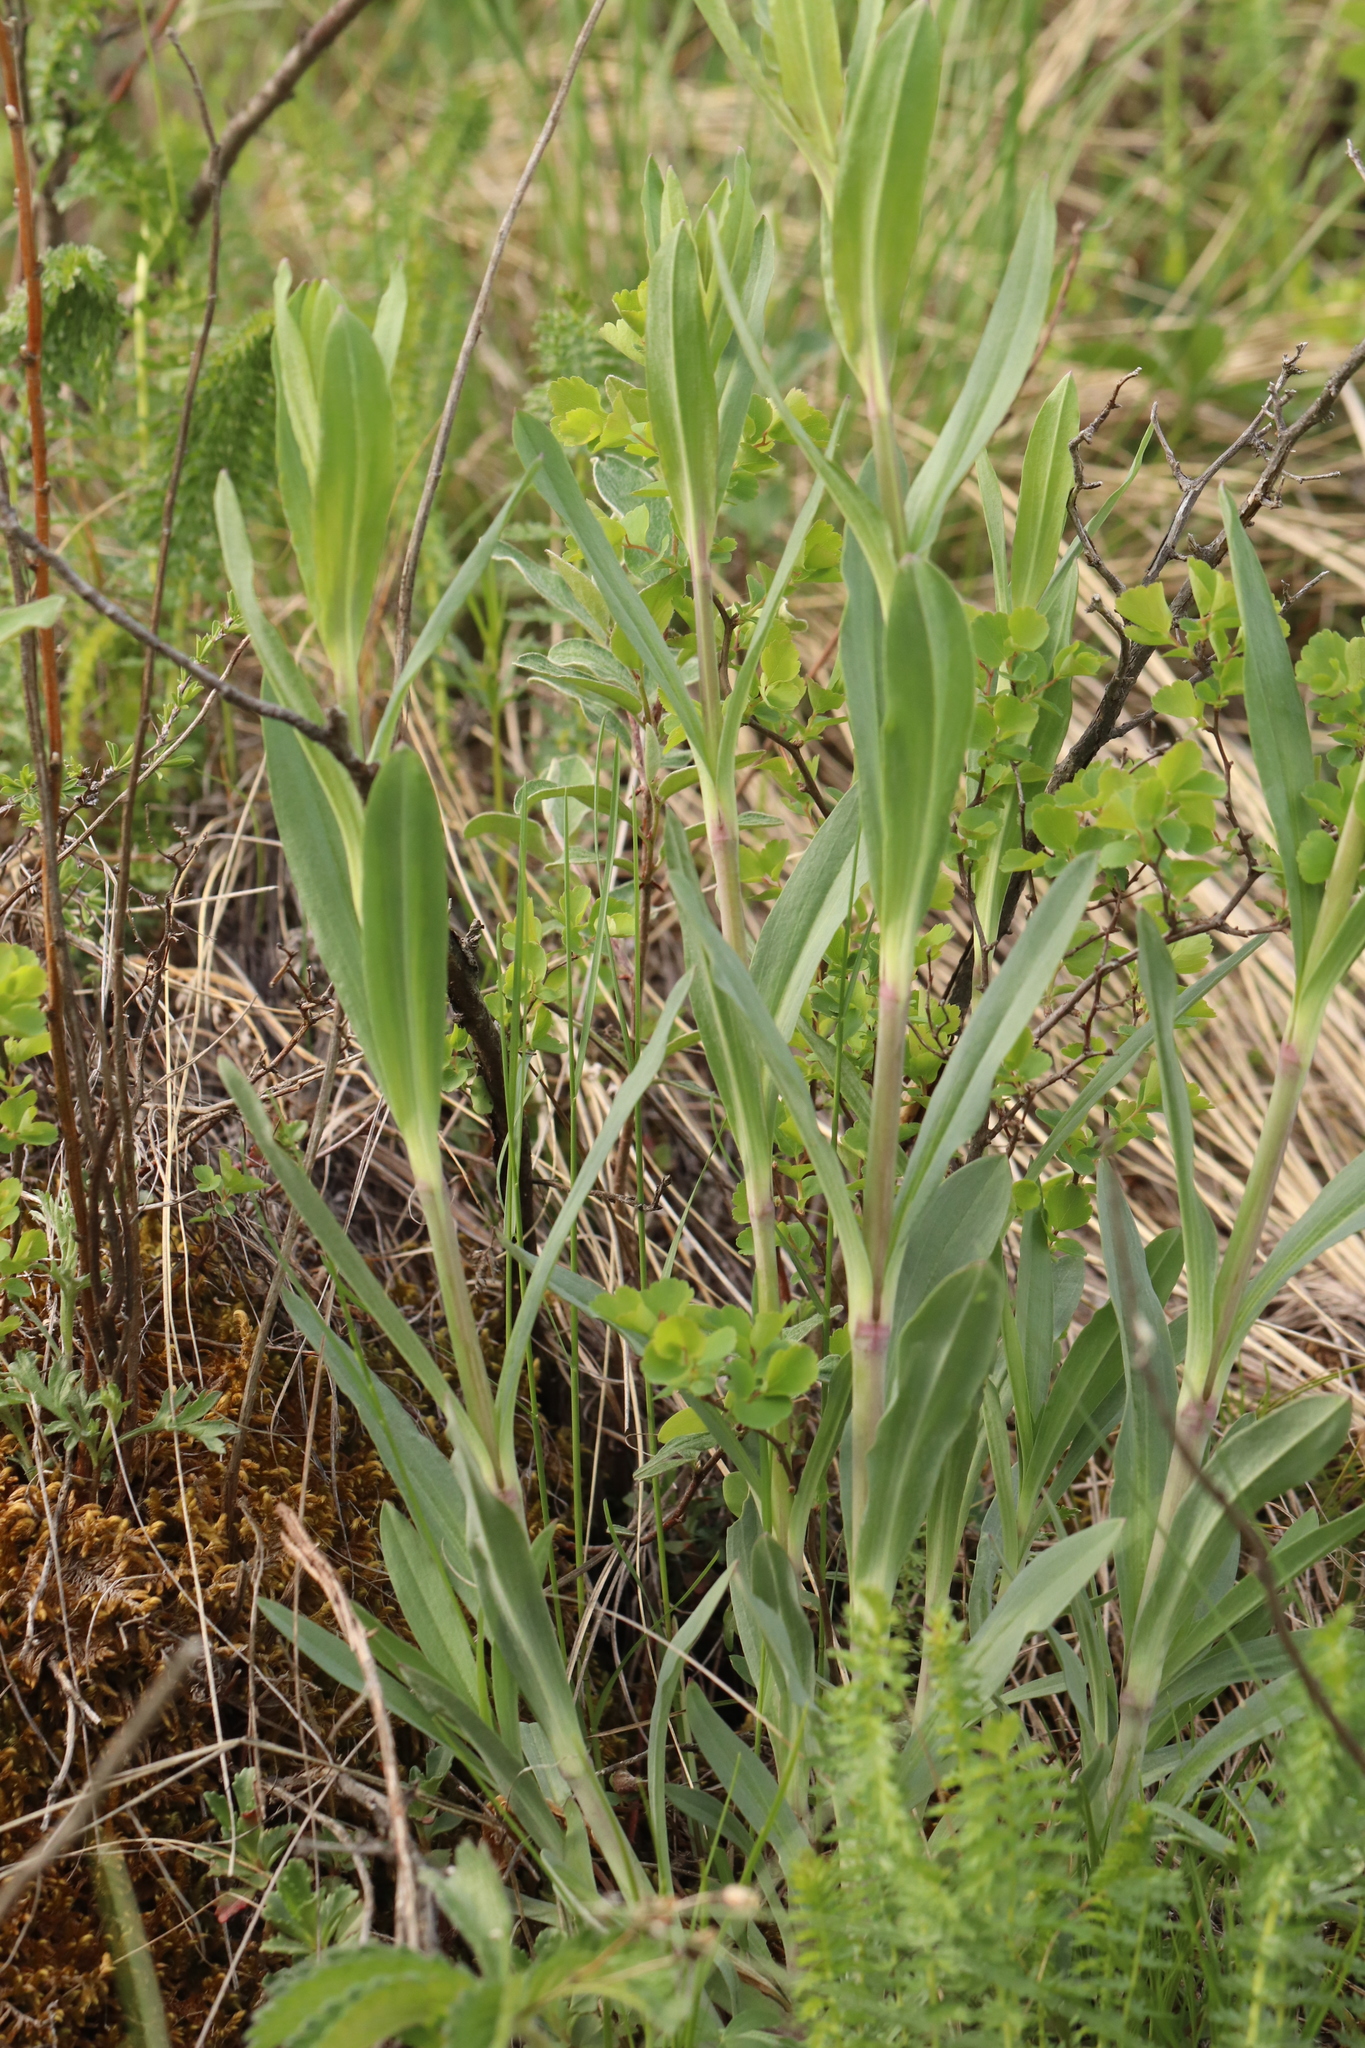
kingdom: Plantae
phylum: Tracheophyta
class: Magnoliopsida
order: Caryophyllales
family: Caryophyllaceae
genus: Gypsophila
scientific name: Gypsophila altissima
